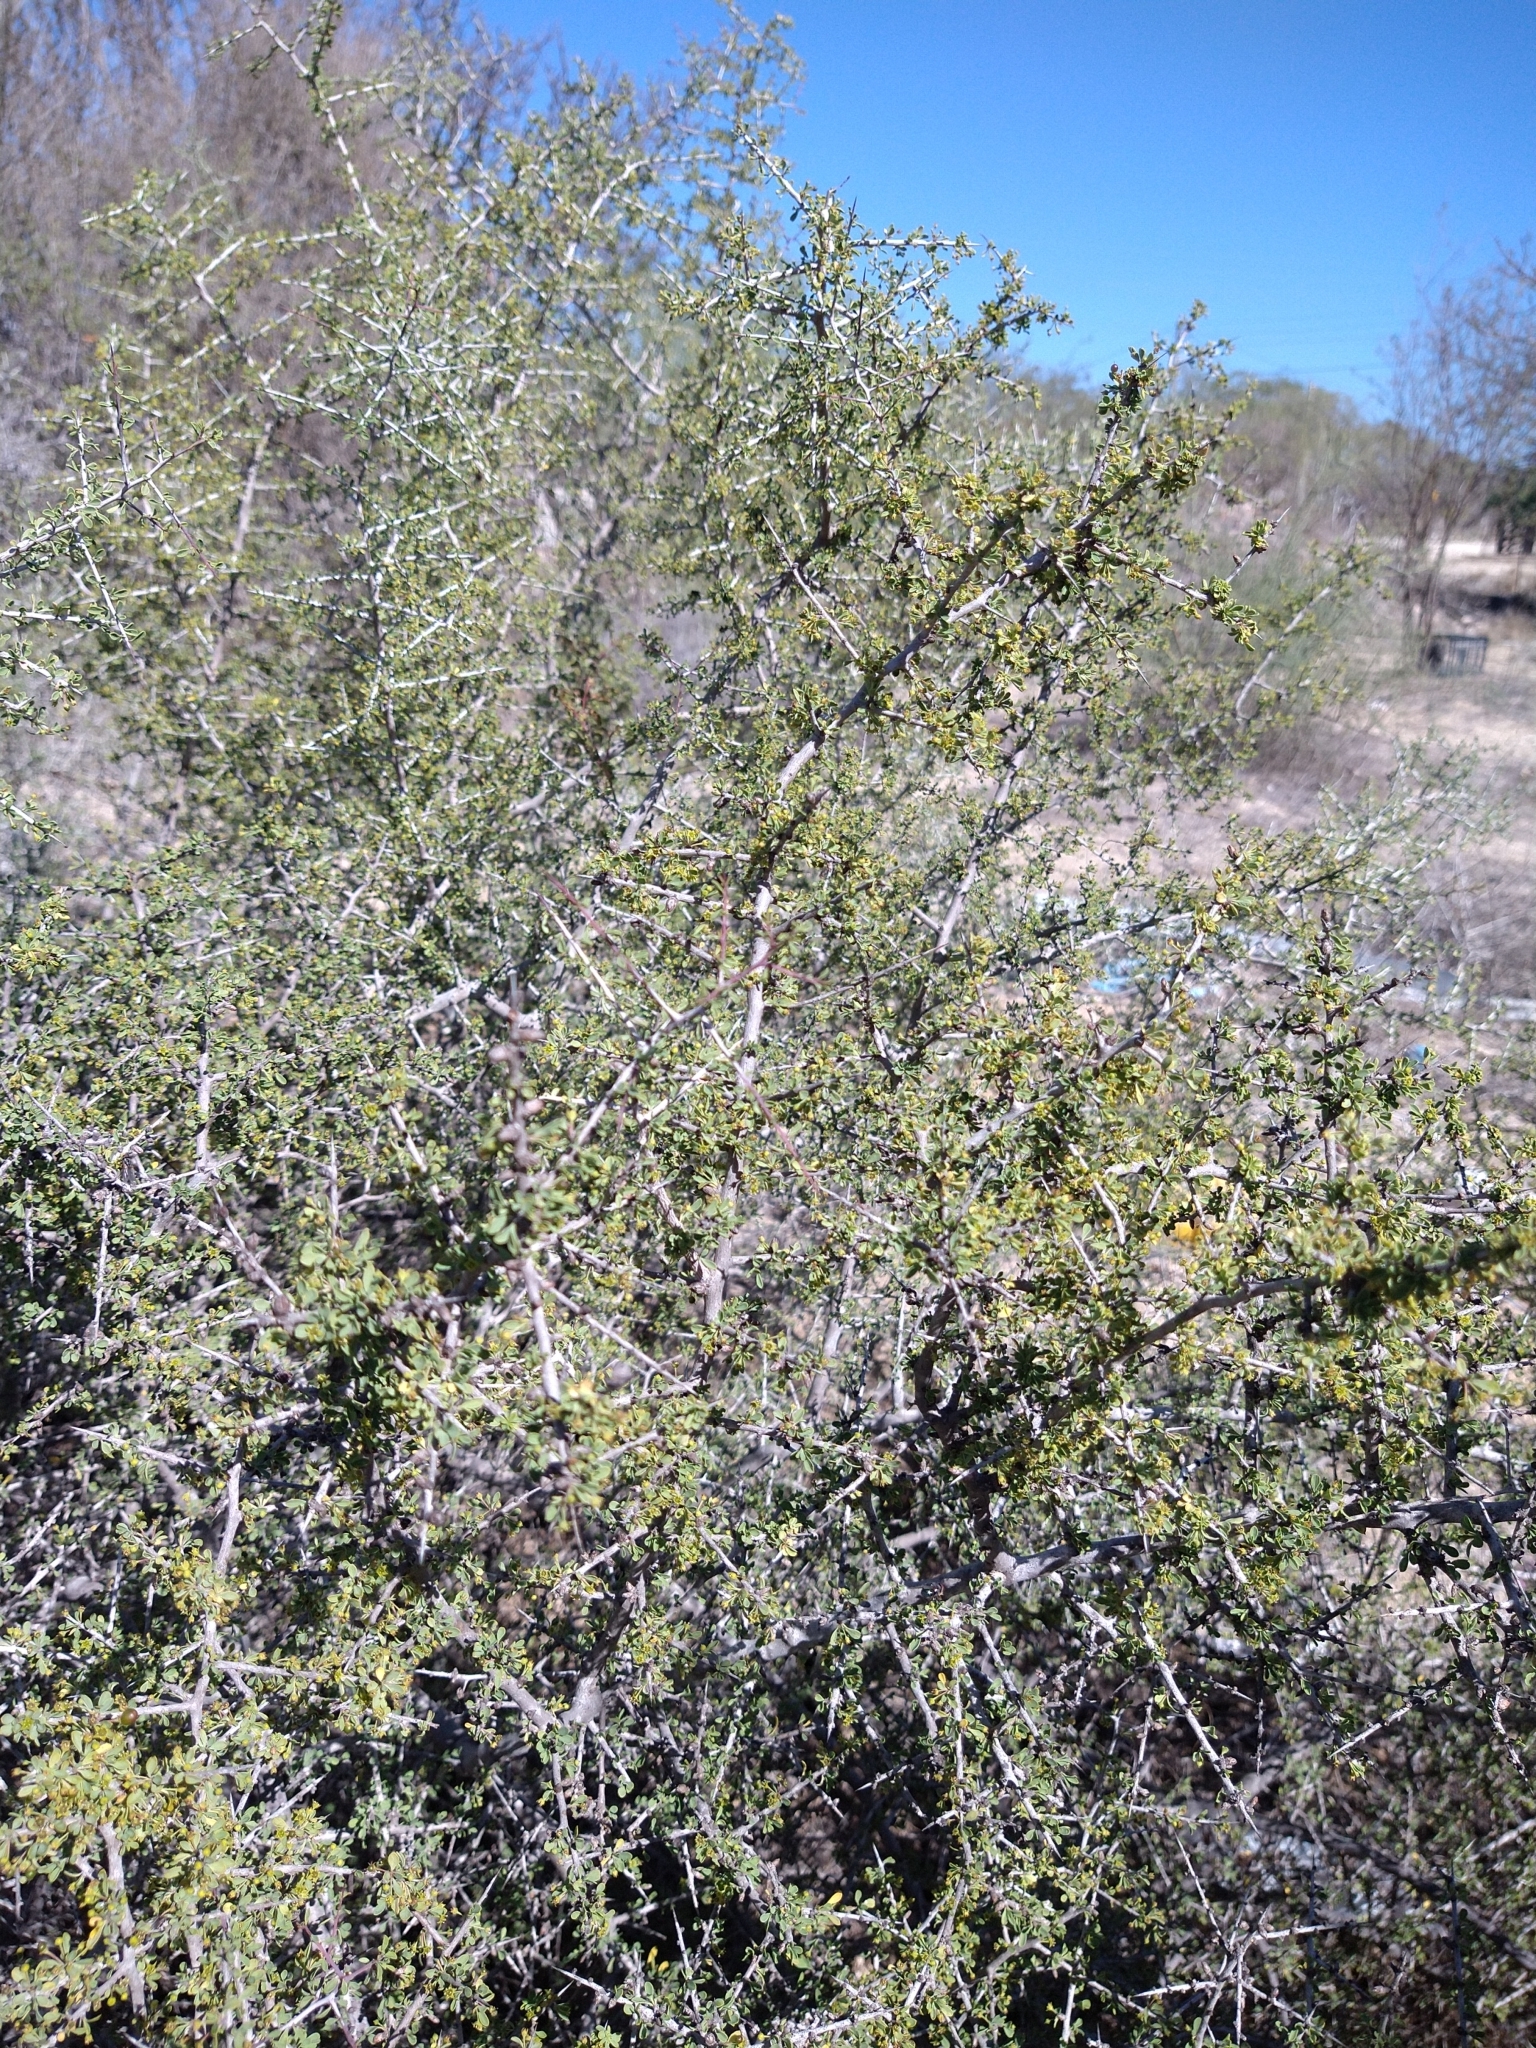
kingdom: Plantae
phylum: Tracheophyta
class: Magnoliopsida
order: Rosales
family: Rhamnaceae
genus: Condalia
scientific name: Condalia globosa
